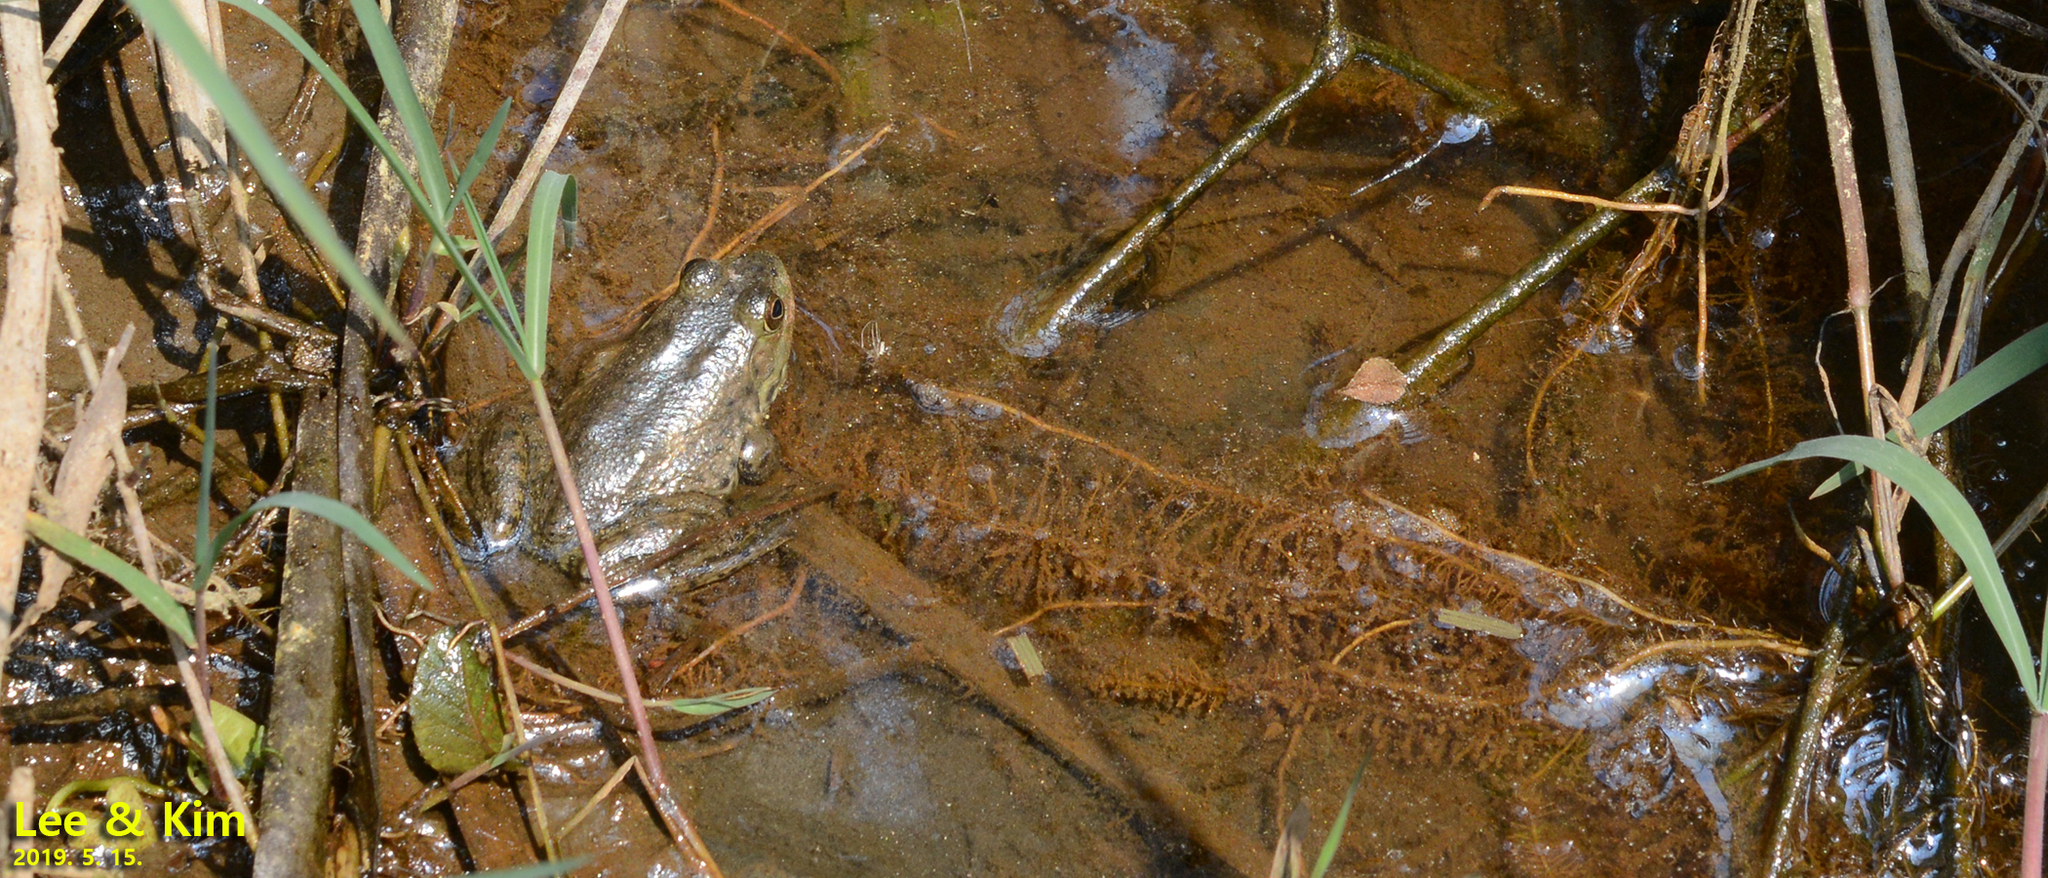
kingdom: Animalia
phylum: Chordata
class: Amphibia
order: Anura
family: Ranidae
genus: Lithobates
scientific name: Lithobates catesbeianus
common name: American bullfrog
